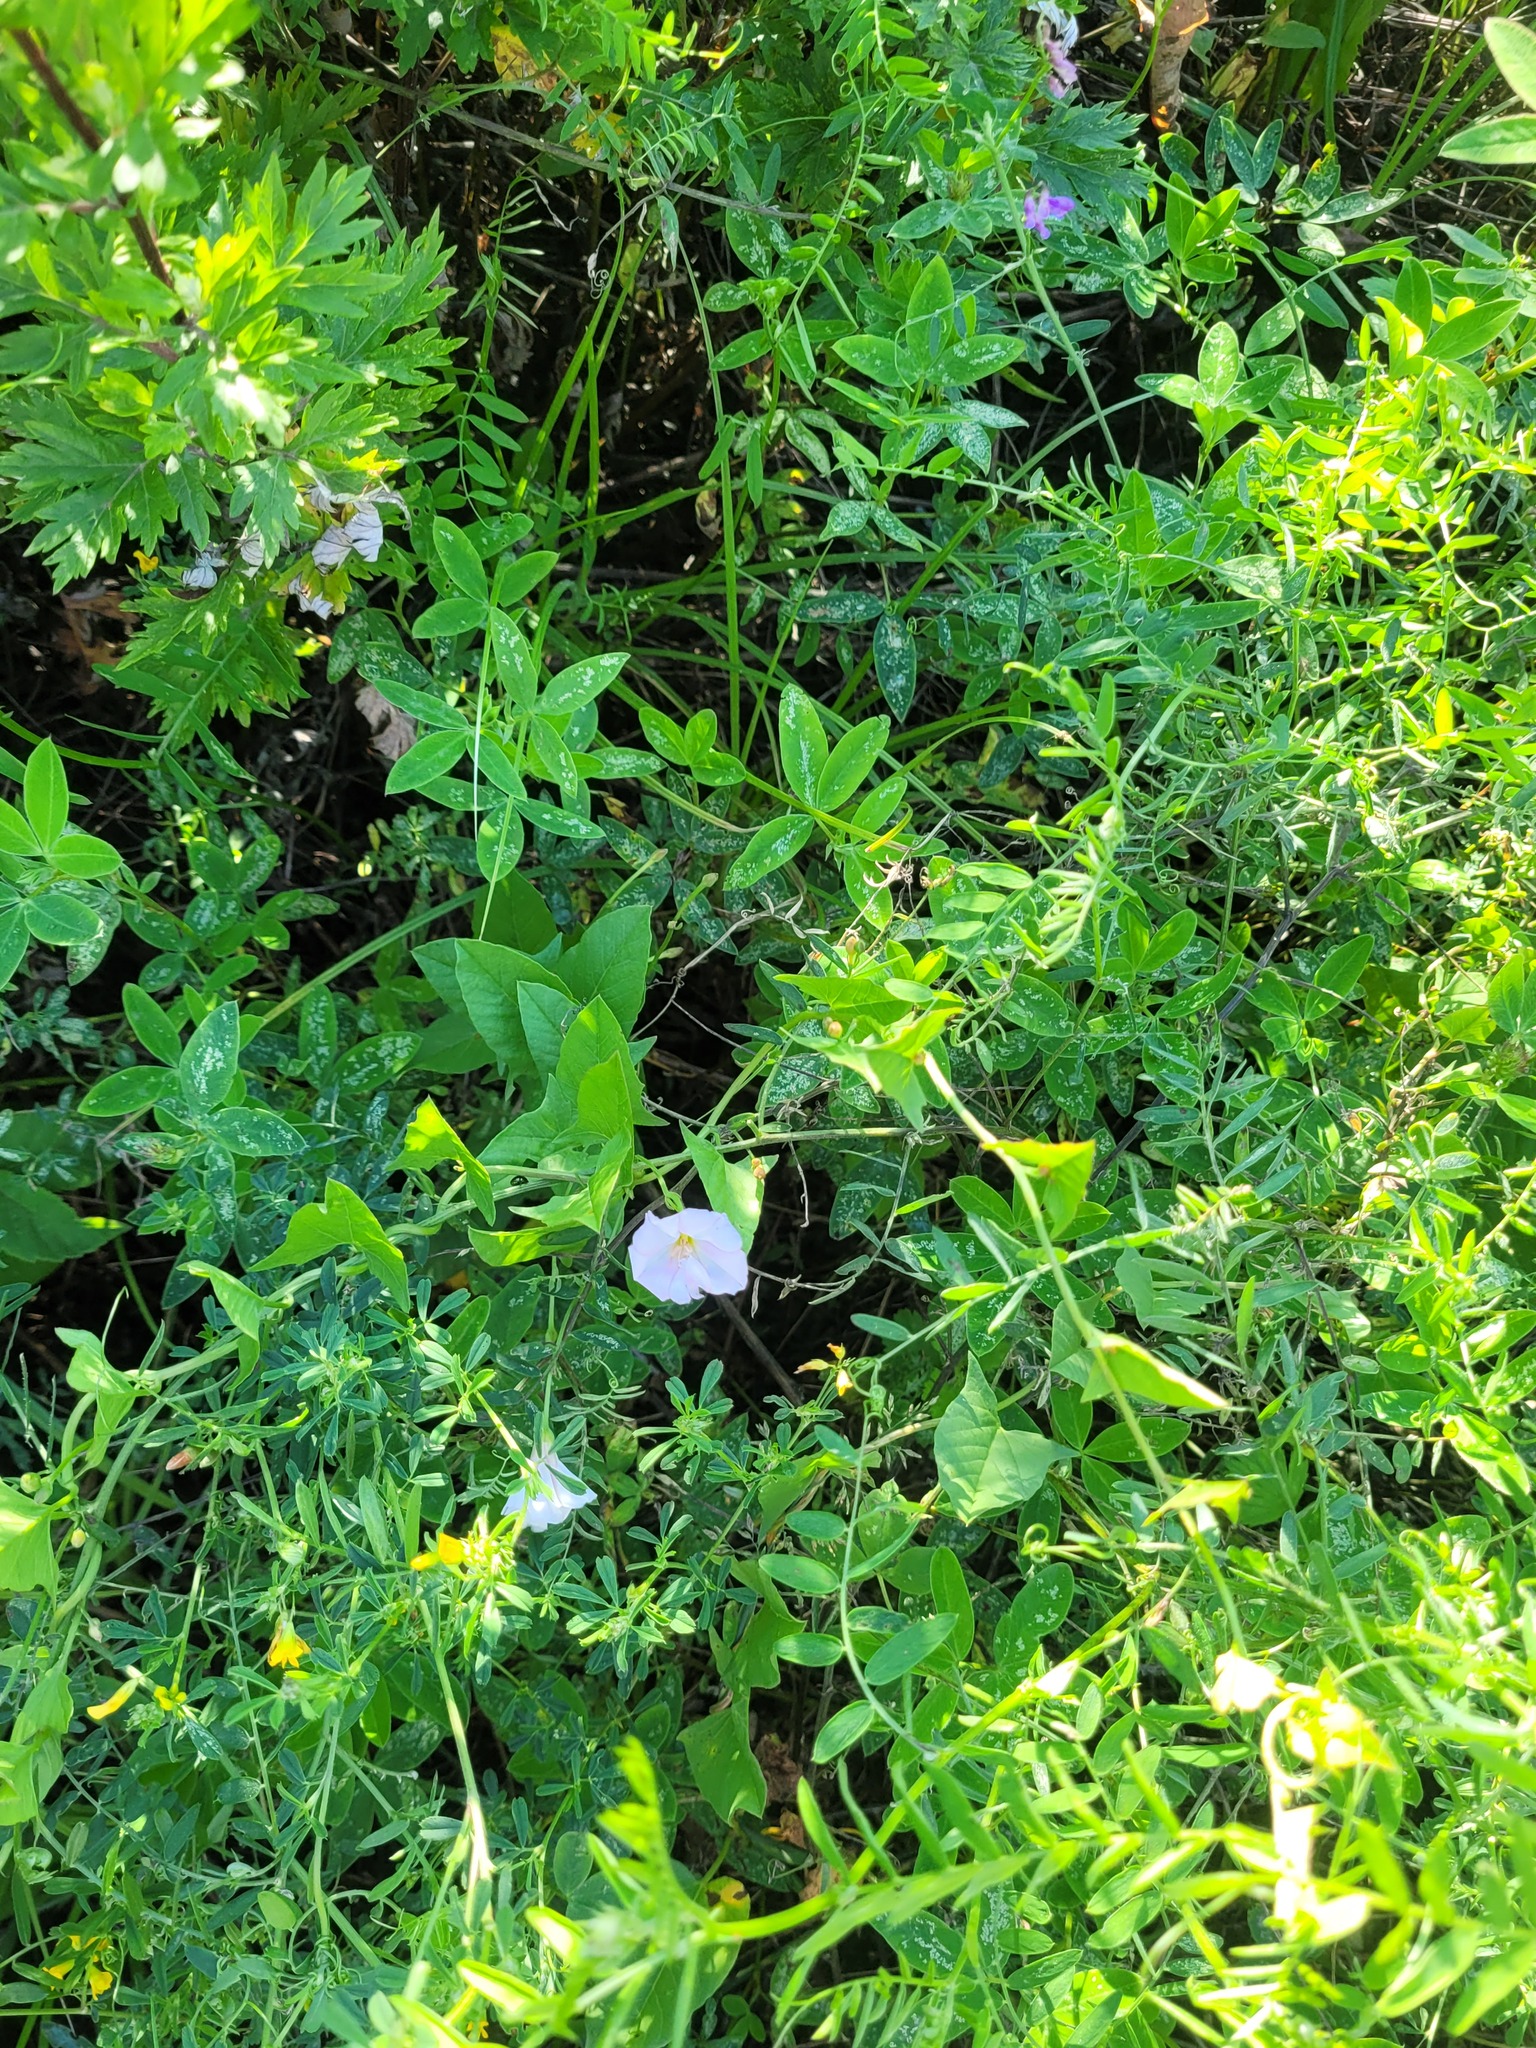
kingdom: Plantae
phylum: Tracheophyta
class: Magnoliopsida
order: Solanales
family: Convolvulaceae
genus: Convolvulus
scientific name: Convolvulus arvensis
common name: Field bindweed
